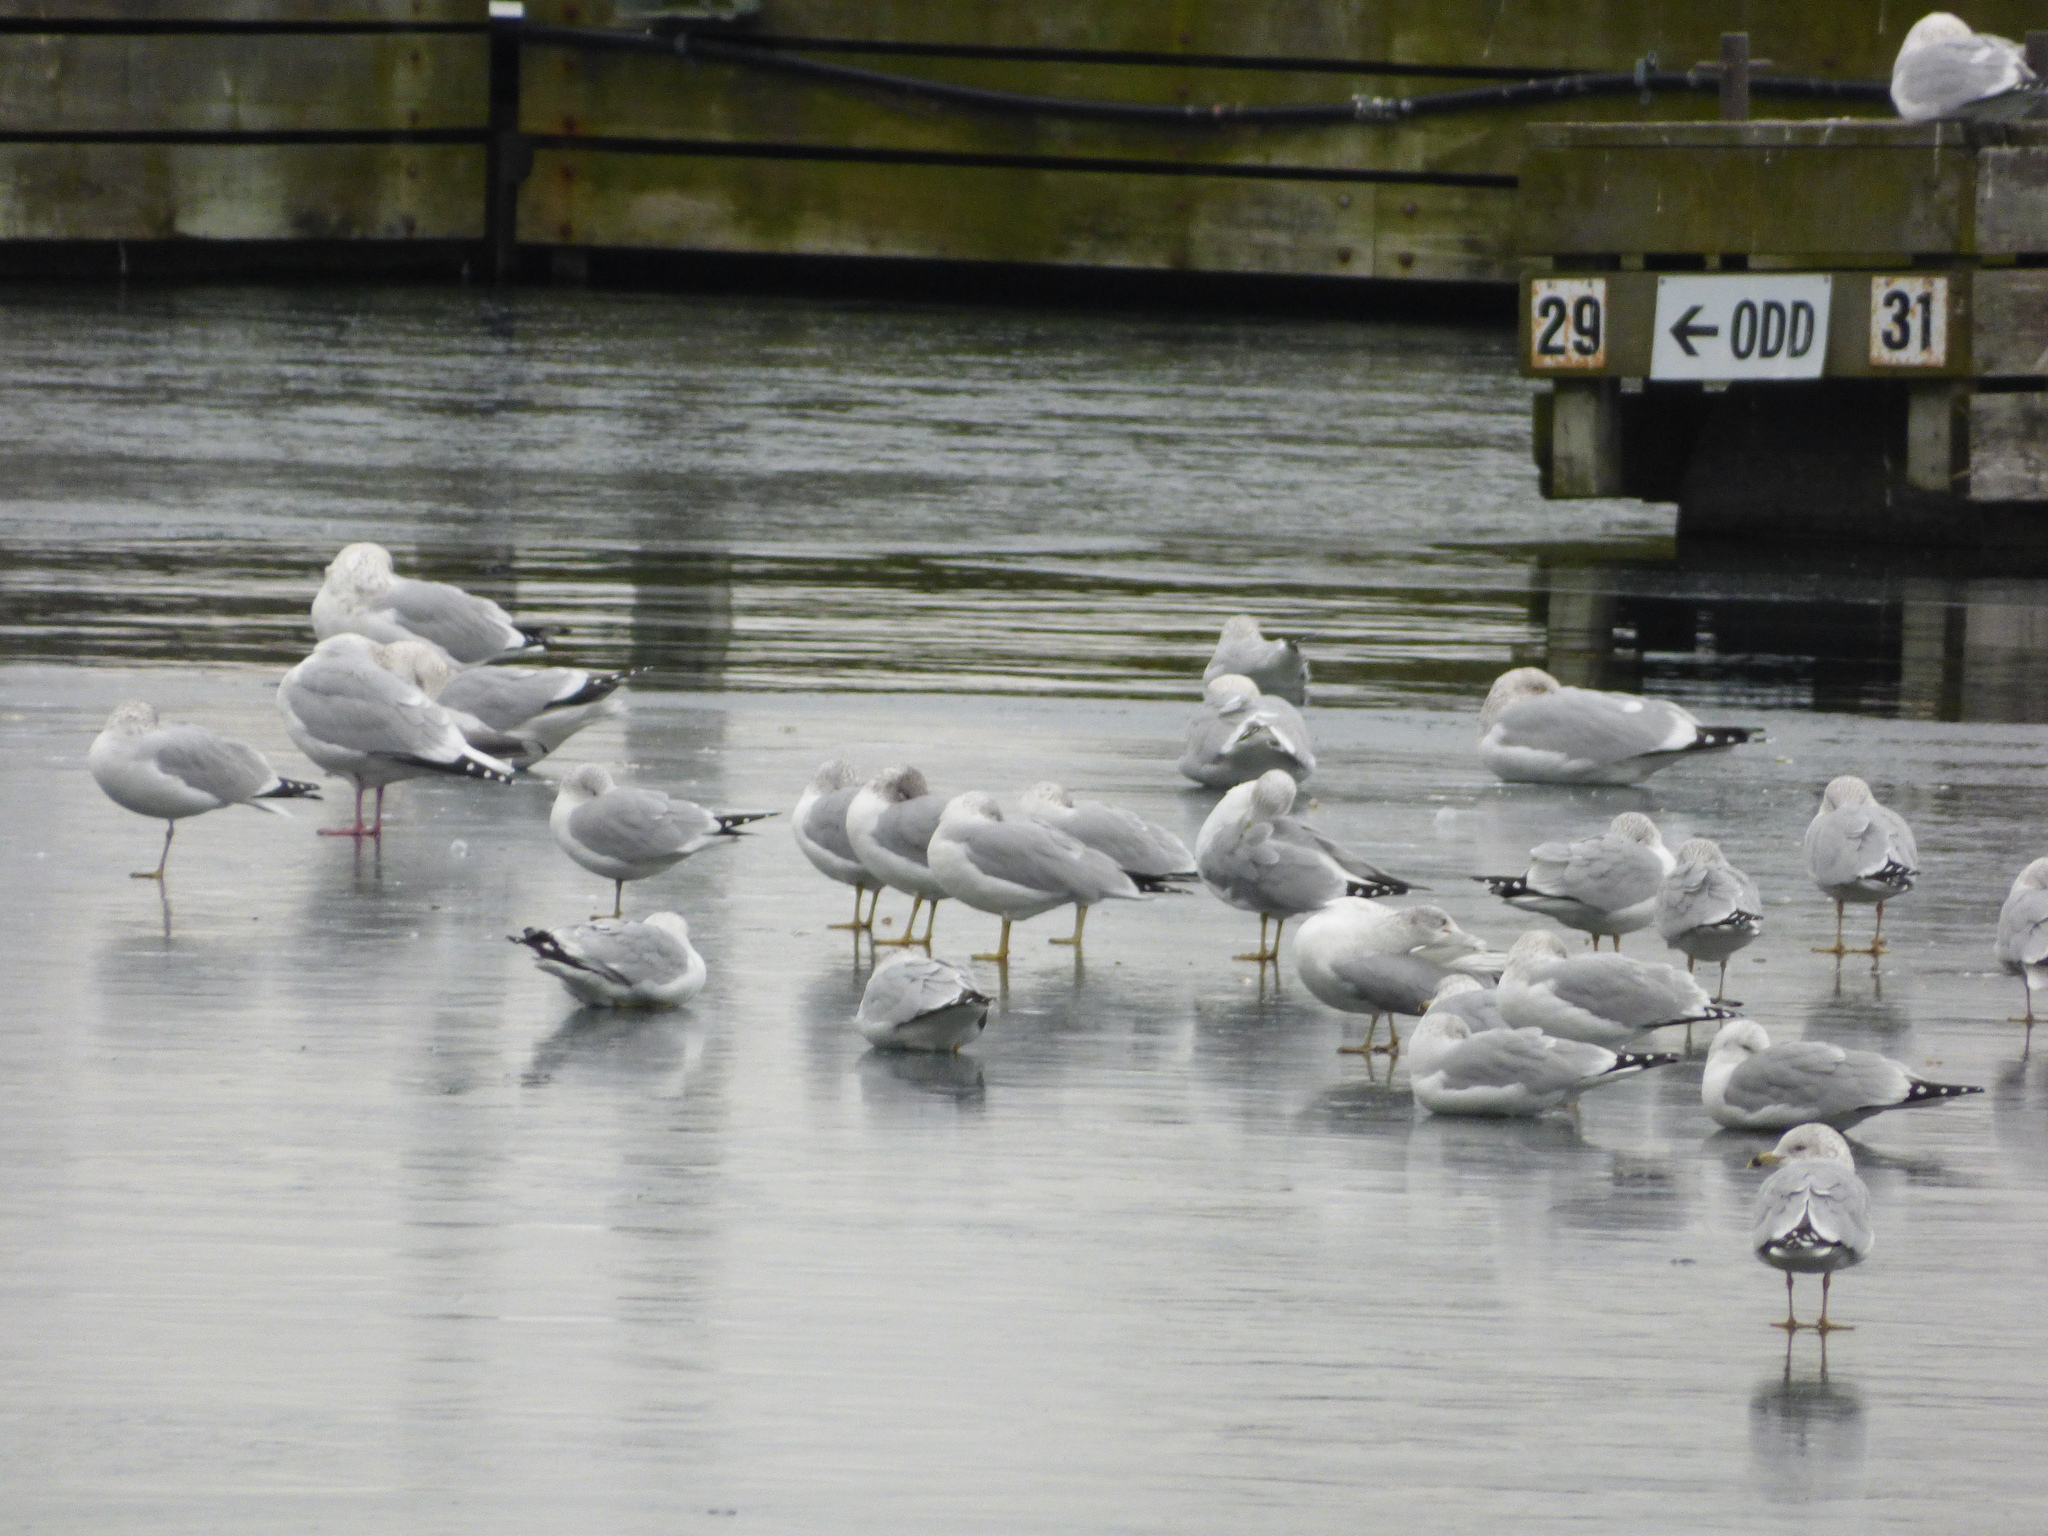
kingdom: Animalia
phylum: Chordata
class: Aves
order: Charadriiformes
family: Laridae
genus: Larus
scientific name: Larus delawarensis
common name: Ring-billed gull
